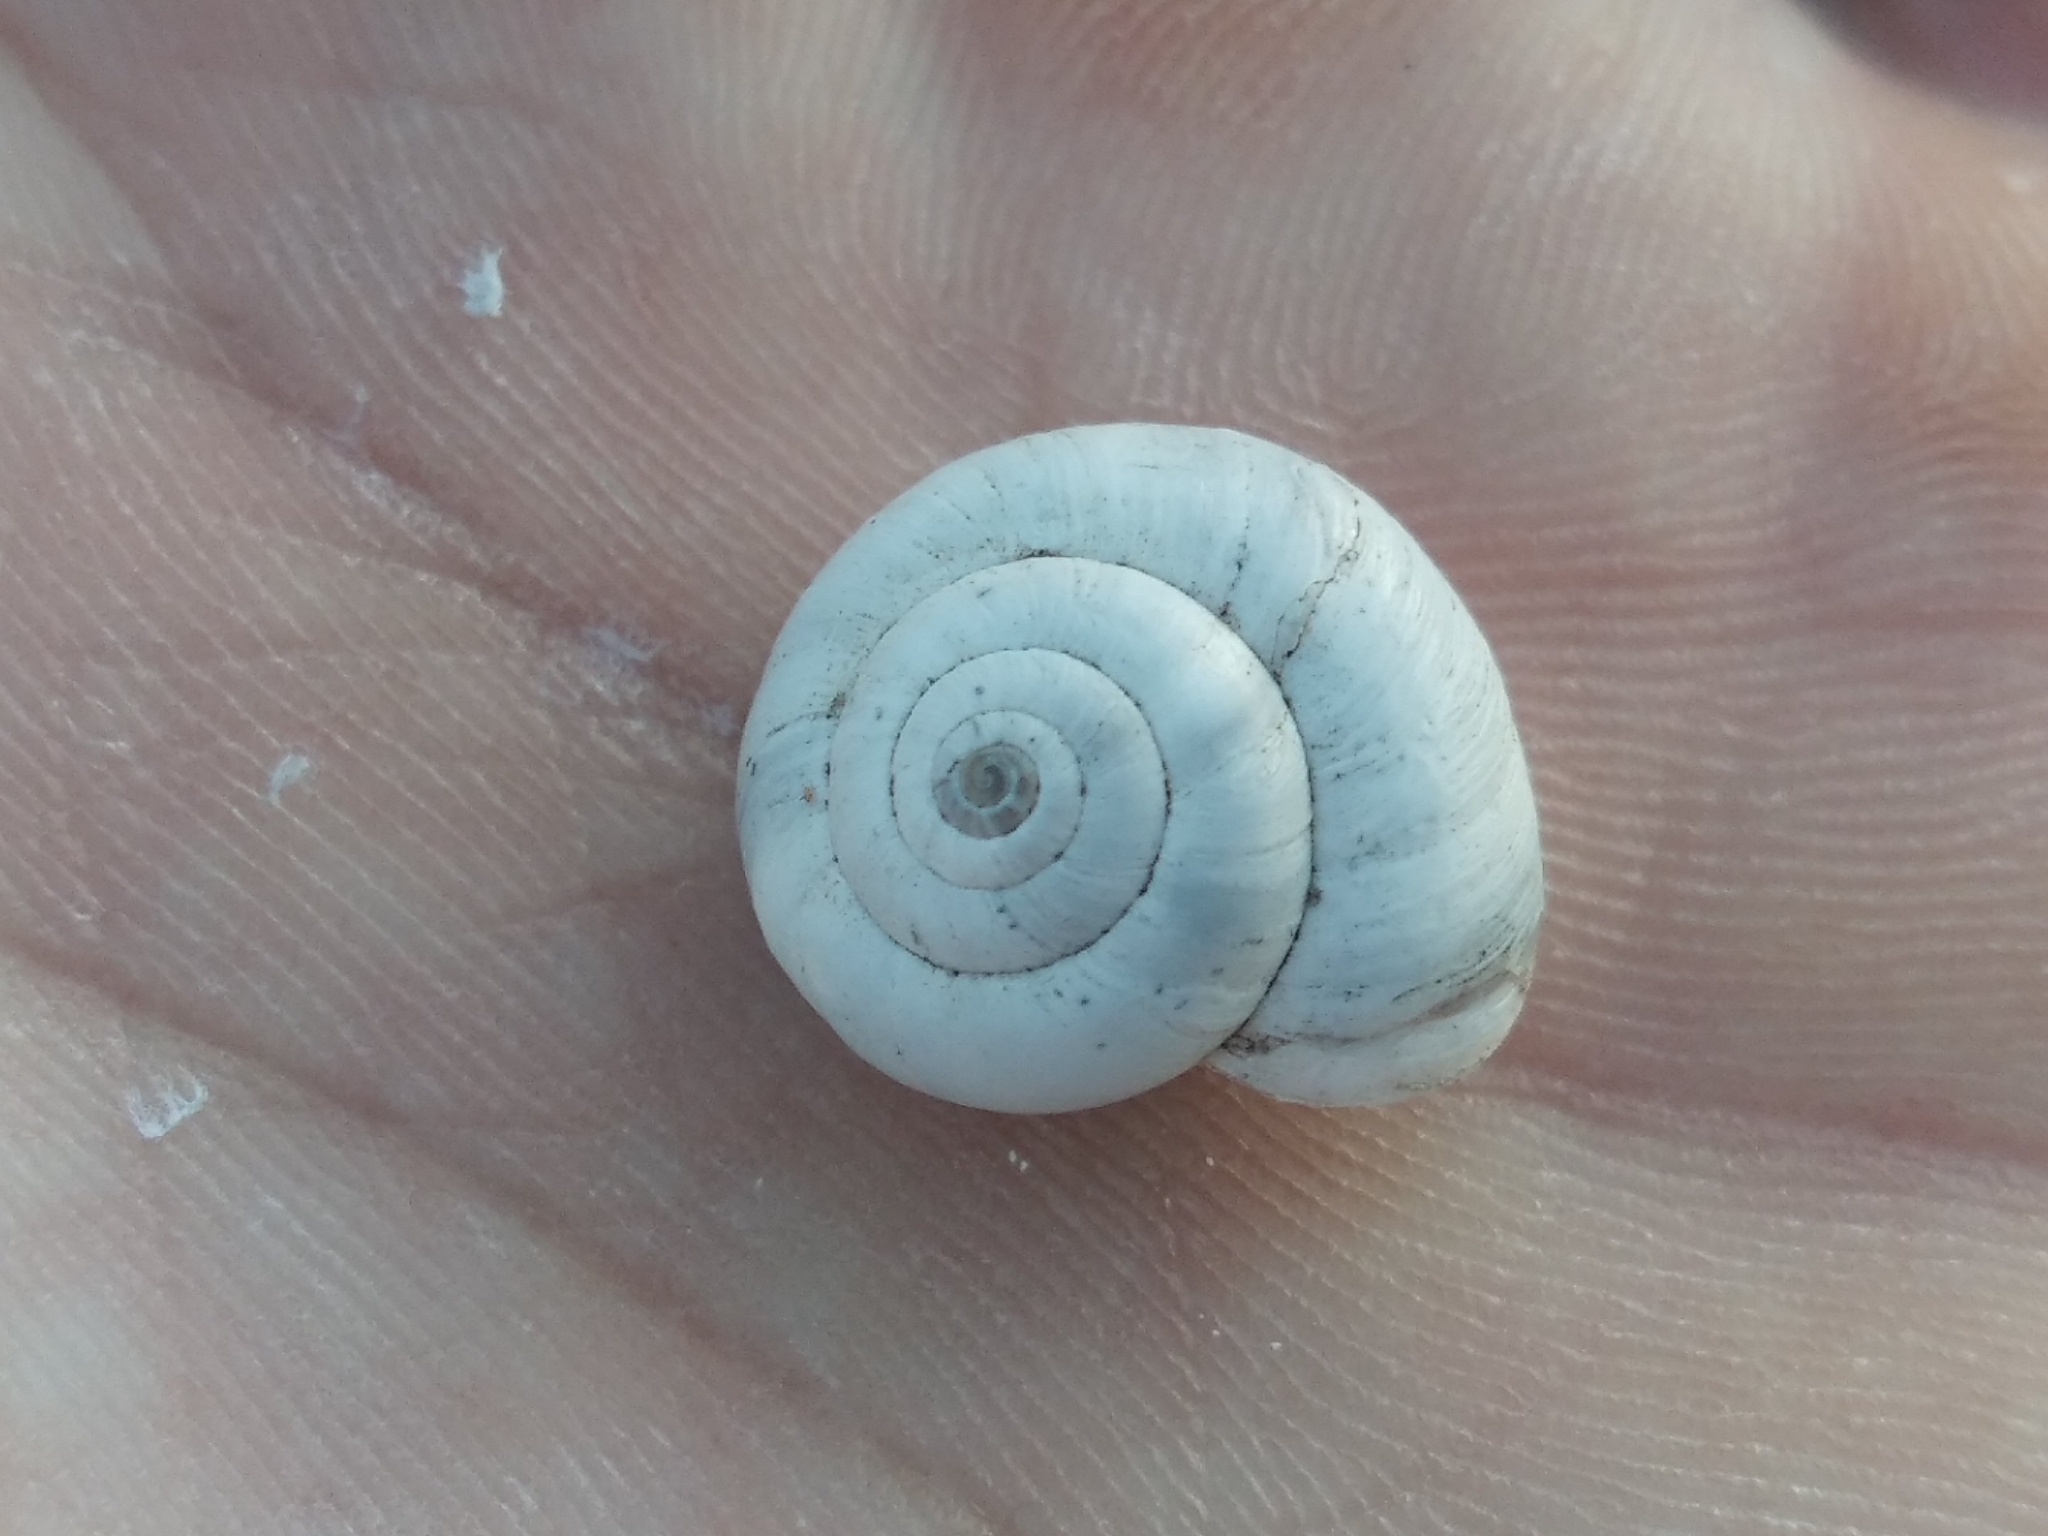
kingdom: Animalia
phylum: Mollusca
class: Gastropoda
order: Stylommatophora
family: Geomitridae
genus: Xeropicta
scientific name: Xeropicta derbentina
